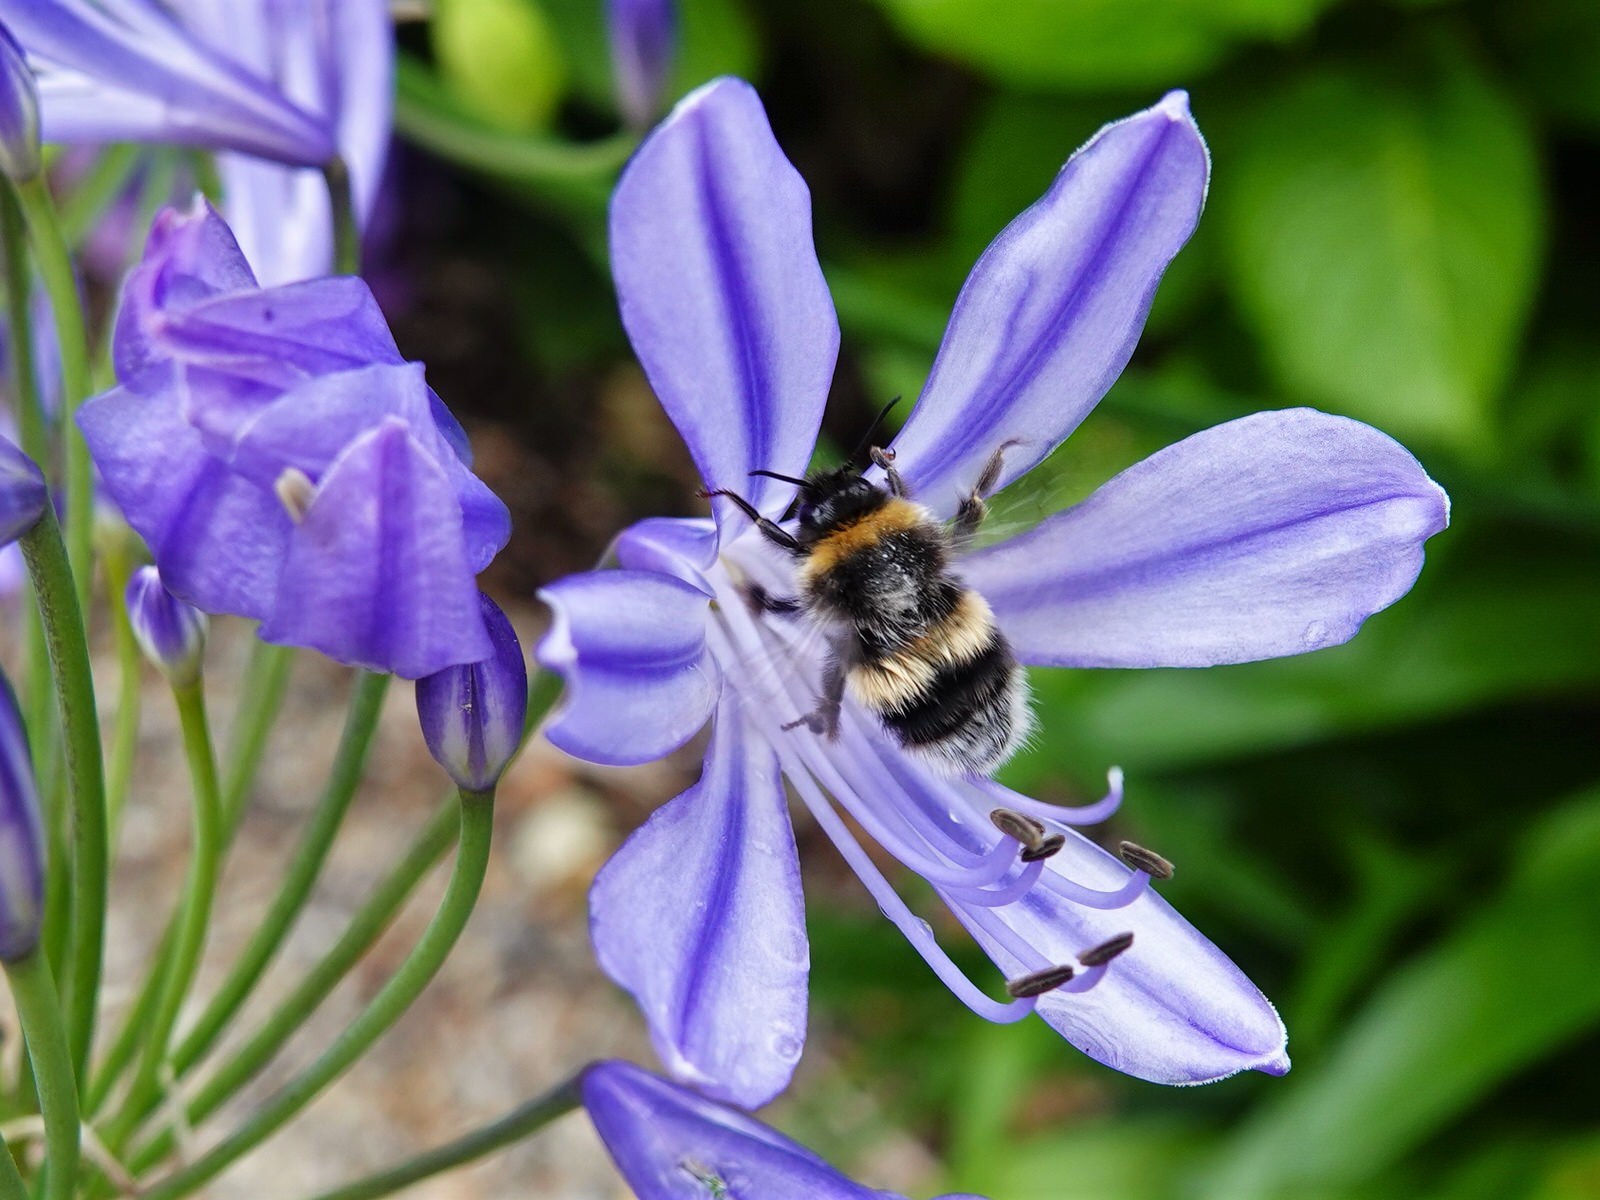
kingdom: Animalia
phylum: Arthropoda
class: Insecta
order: Hymenoptera
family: Apidae
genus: Bombus
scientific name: Bombus terrestris
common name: Buff-tailed bumblebee
